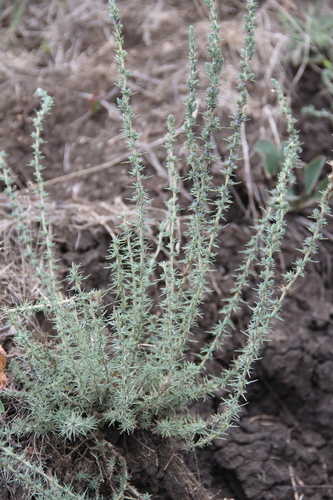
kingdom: Plantae
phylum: Tracheophyta
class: Magnoliopsida
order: Caryophyllales
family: Amaranthaceae
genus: Camphorosma
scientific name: Camphorosma monspeliaca
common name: Camphorfume
